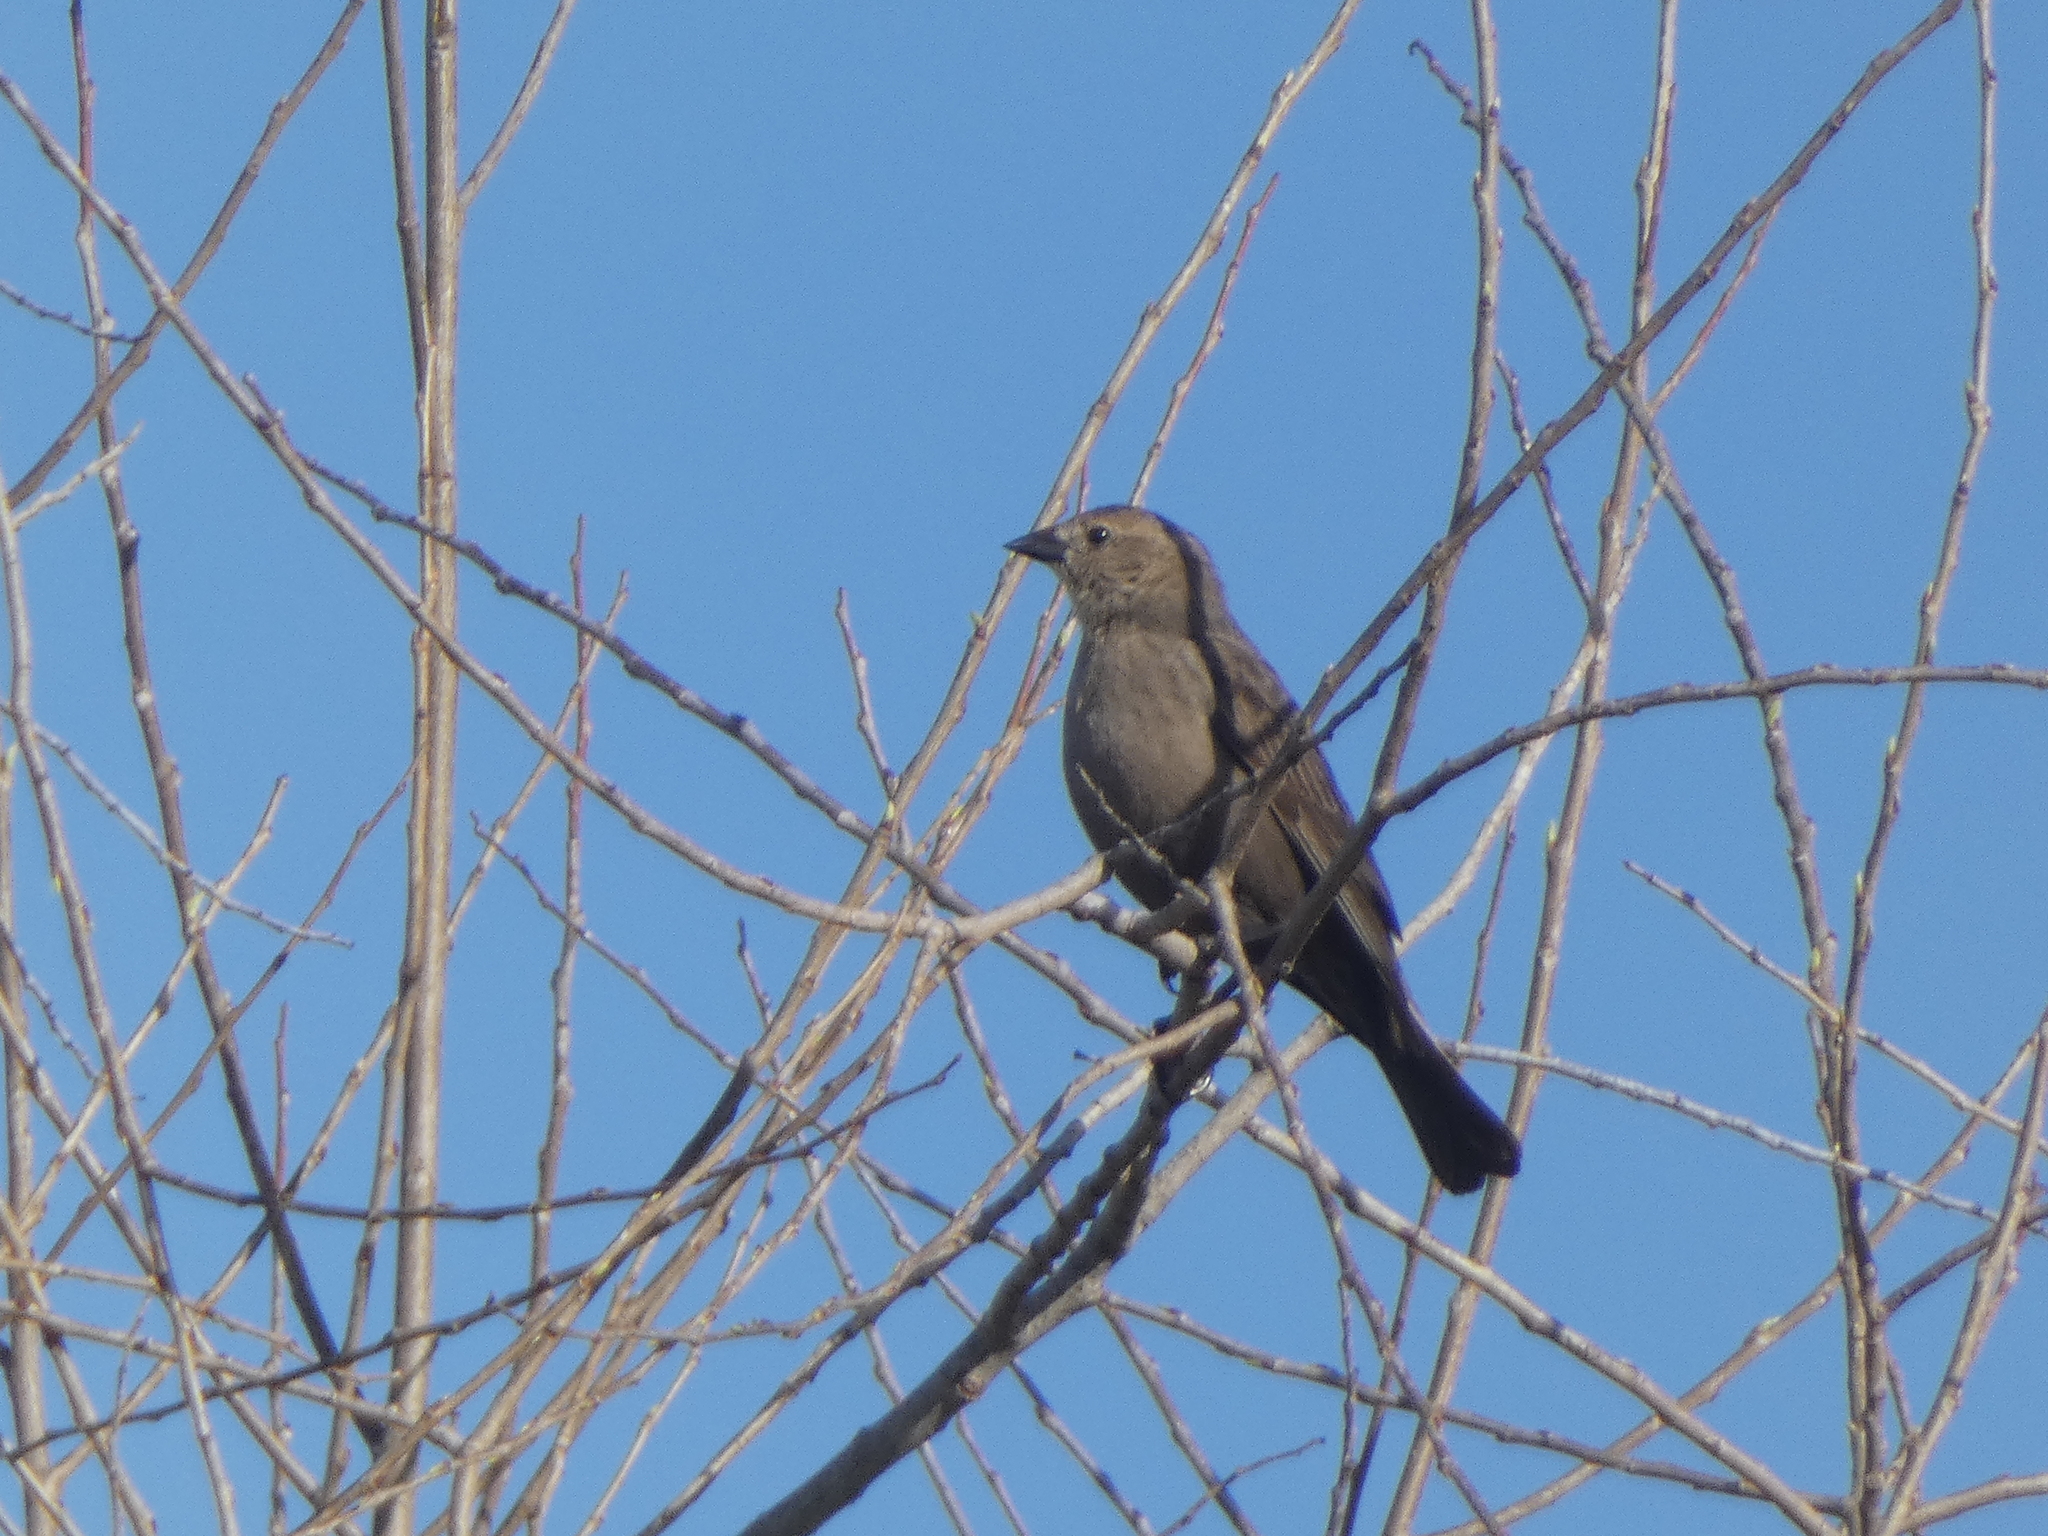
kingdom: Animalia
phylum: Chordata
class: Aves
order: Passeriformes
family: Icteridae
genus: Molothrus
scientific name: Molothrus ater
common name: Brown-headed cowbird
